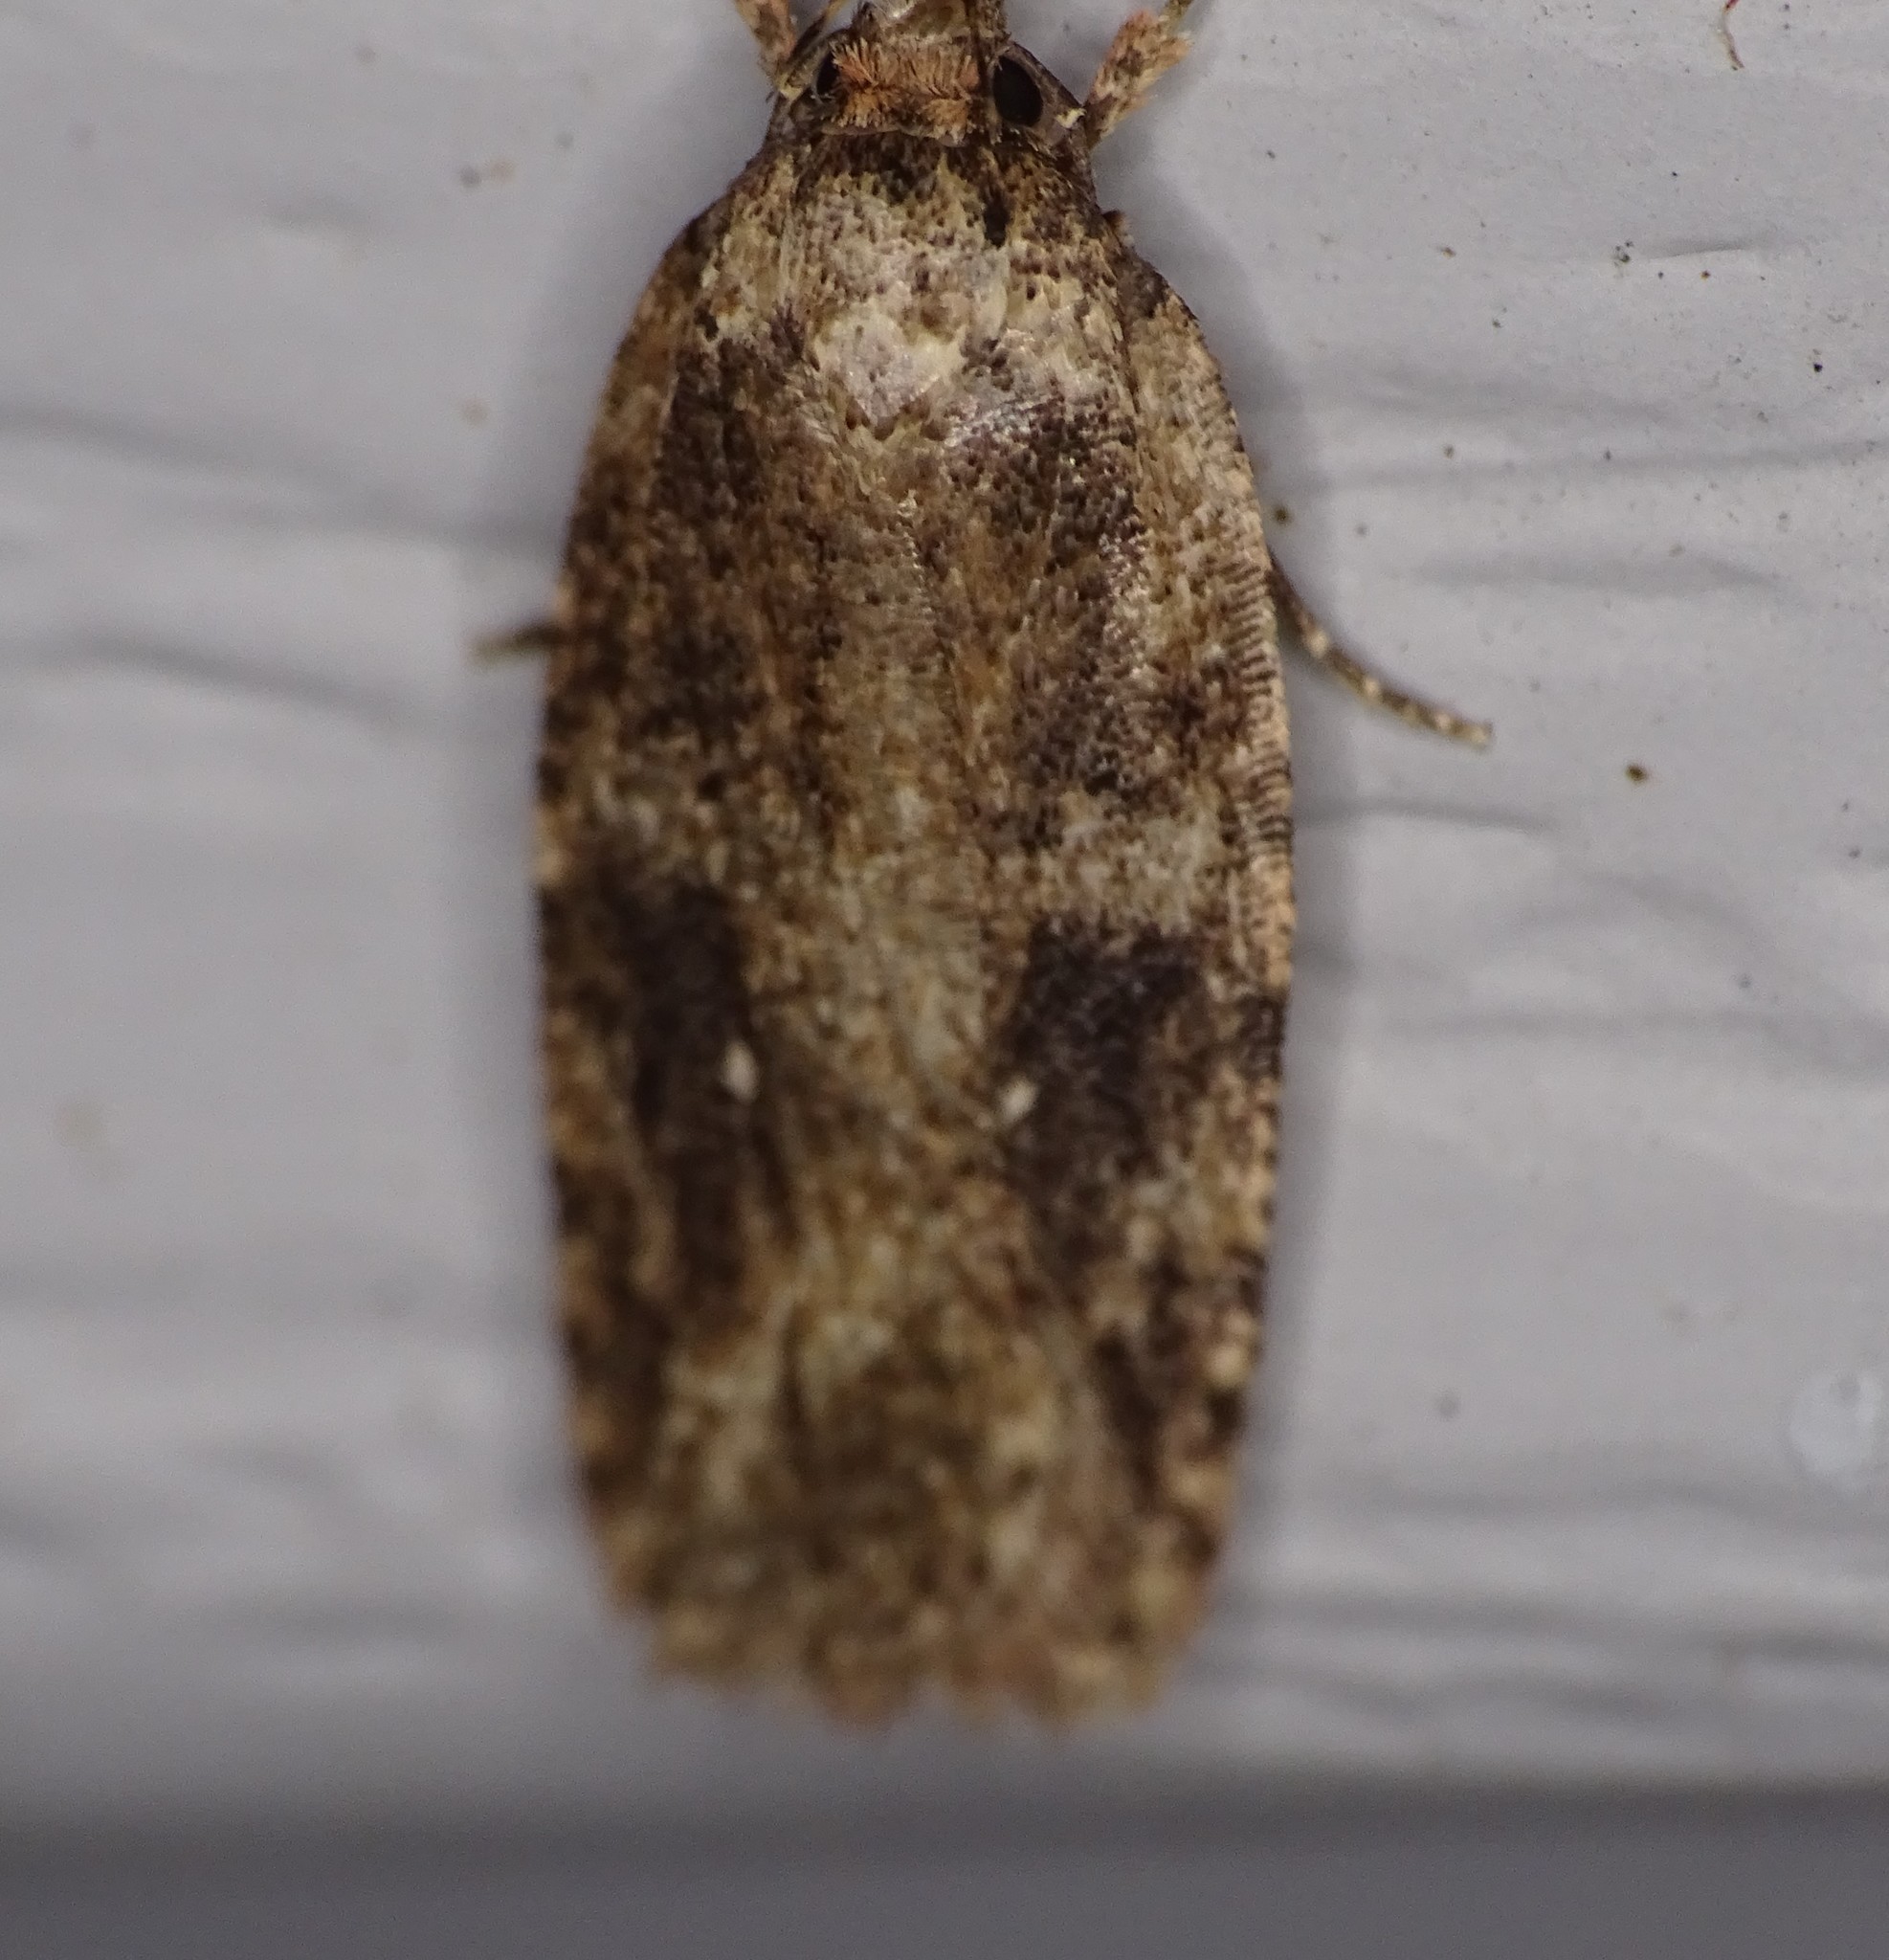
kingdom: Animalia
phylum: Arthropoda
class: Insecta
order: Lepidoptera
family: Depressariidae
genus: Agonopterix
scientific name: Agonopterix pulvipennella
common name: Goldenrod leafffolder
